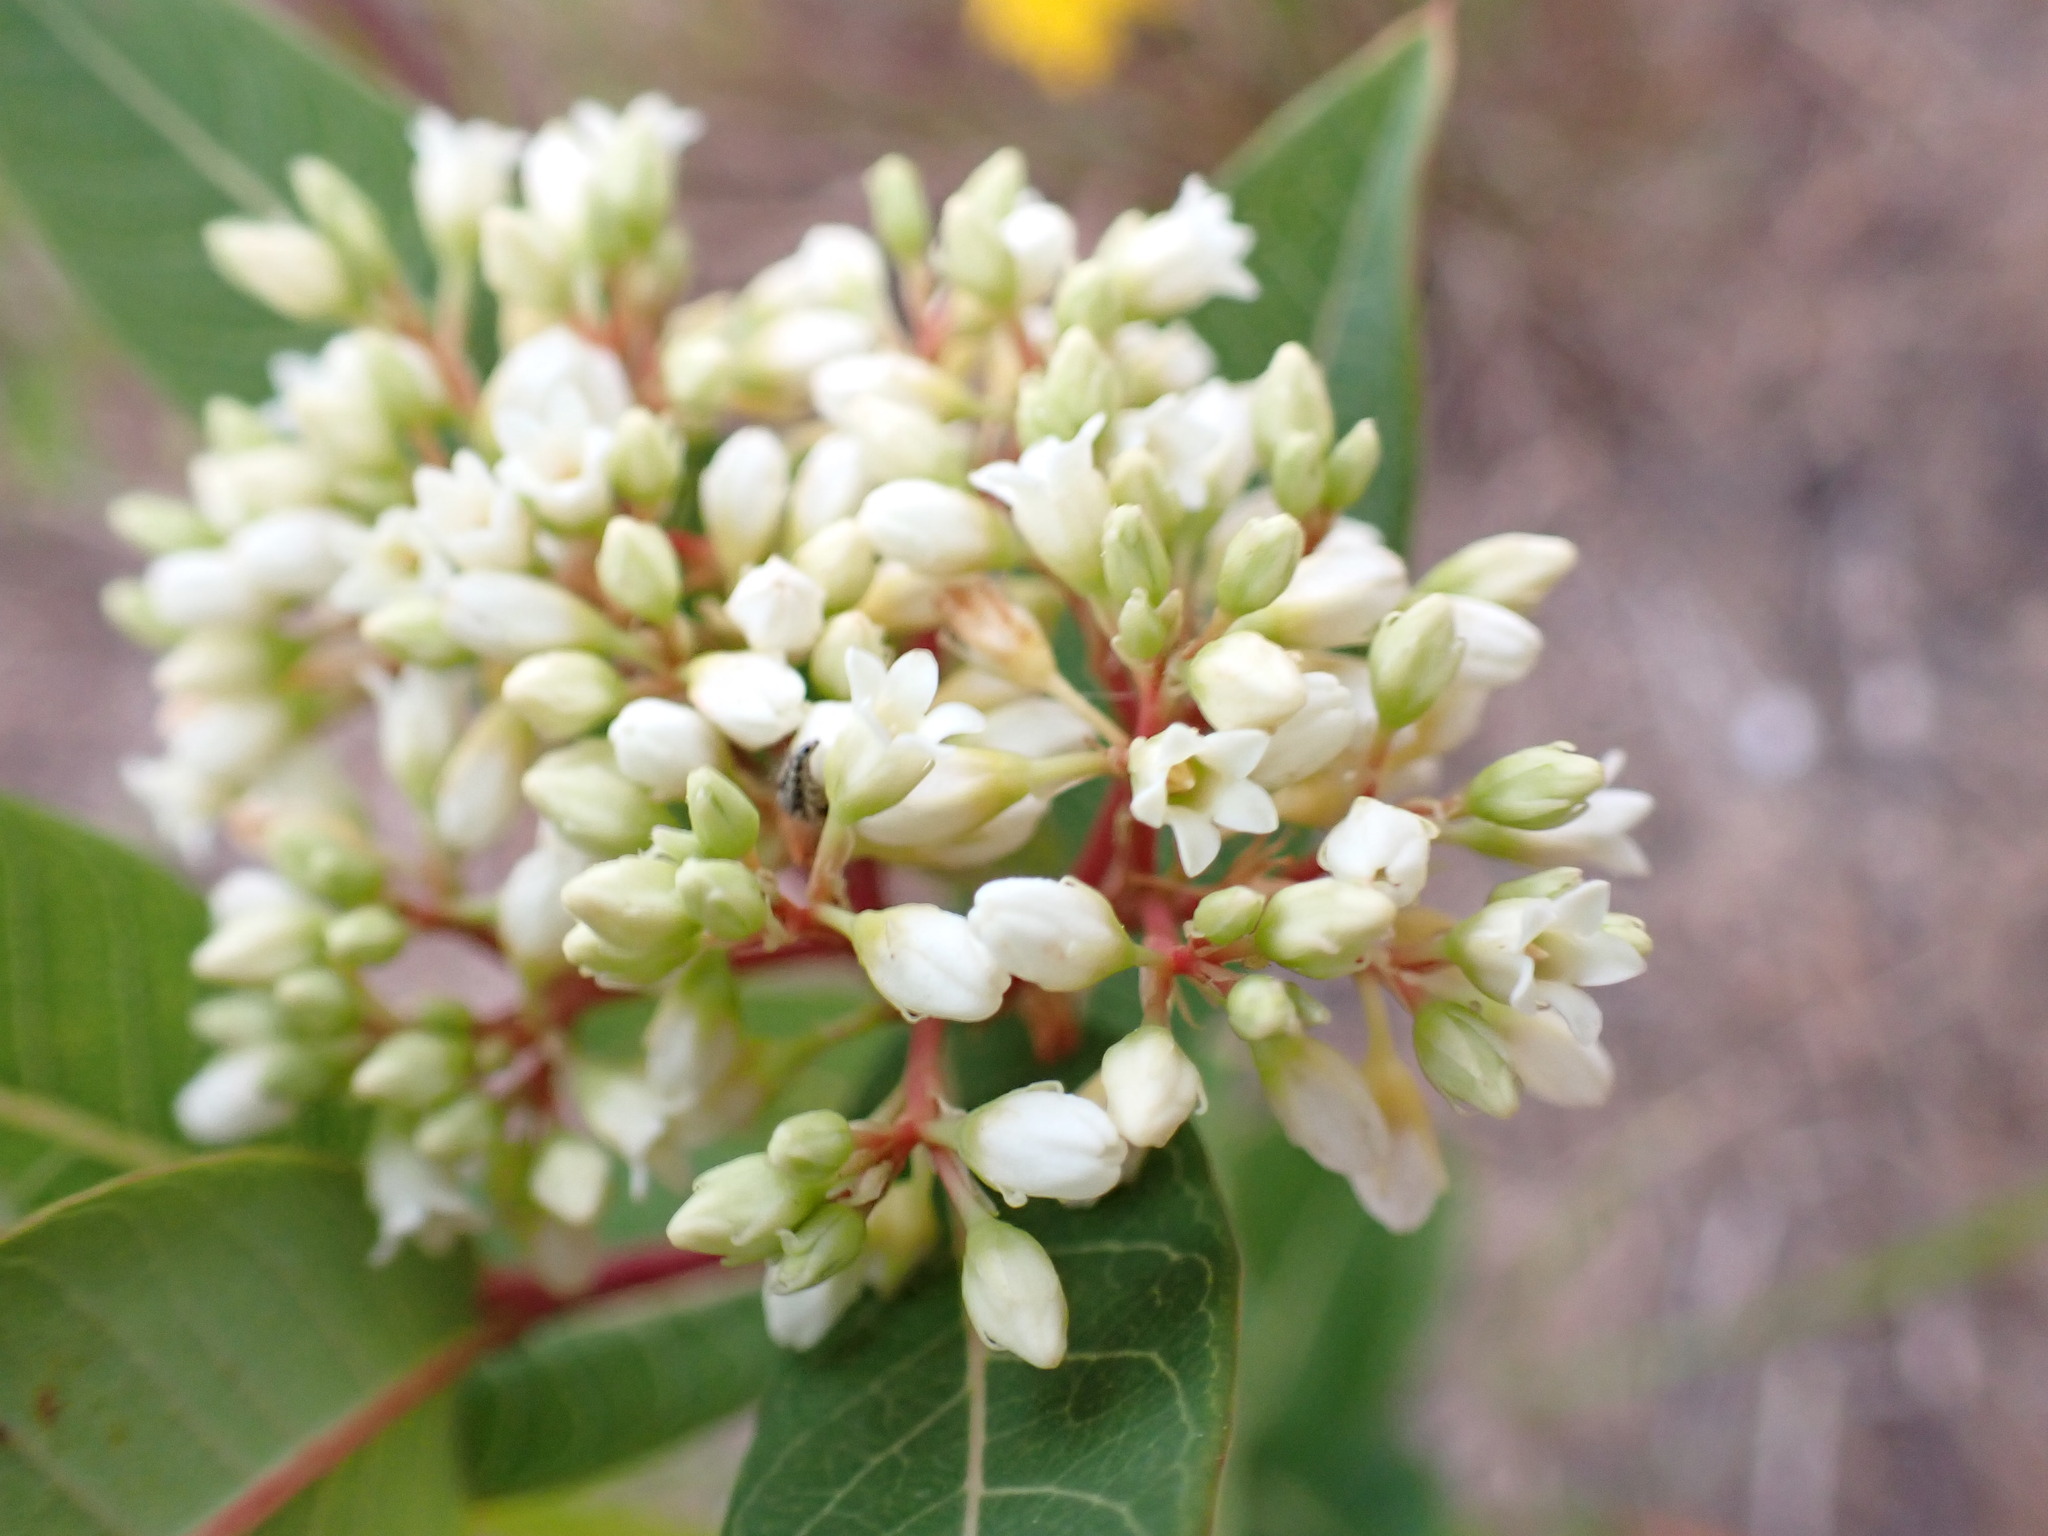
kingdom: Plantae
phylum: Tracheophyta
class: Magnoliopsida
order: Gentianales
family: Apocynaceae
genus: Apocynum
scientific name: Apocynum cannabinum
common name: Hemp dogbane
